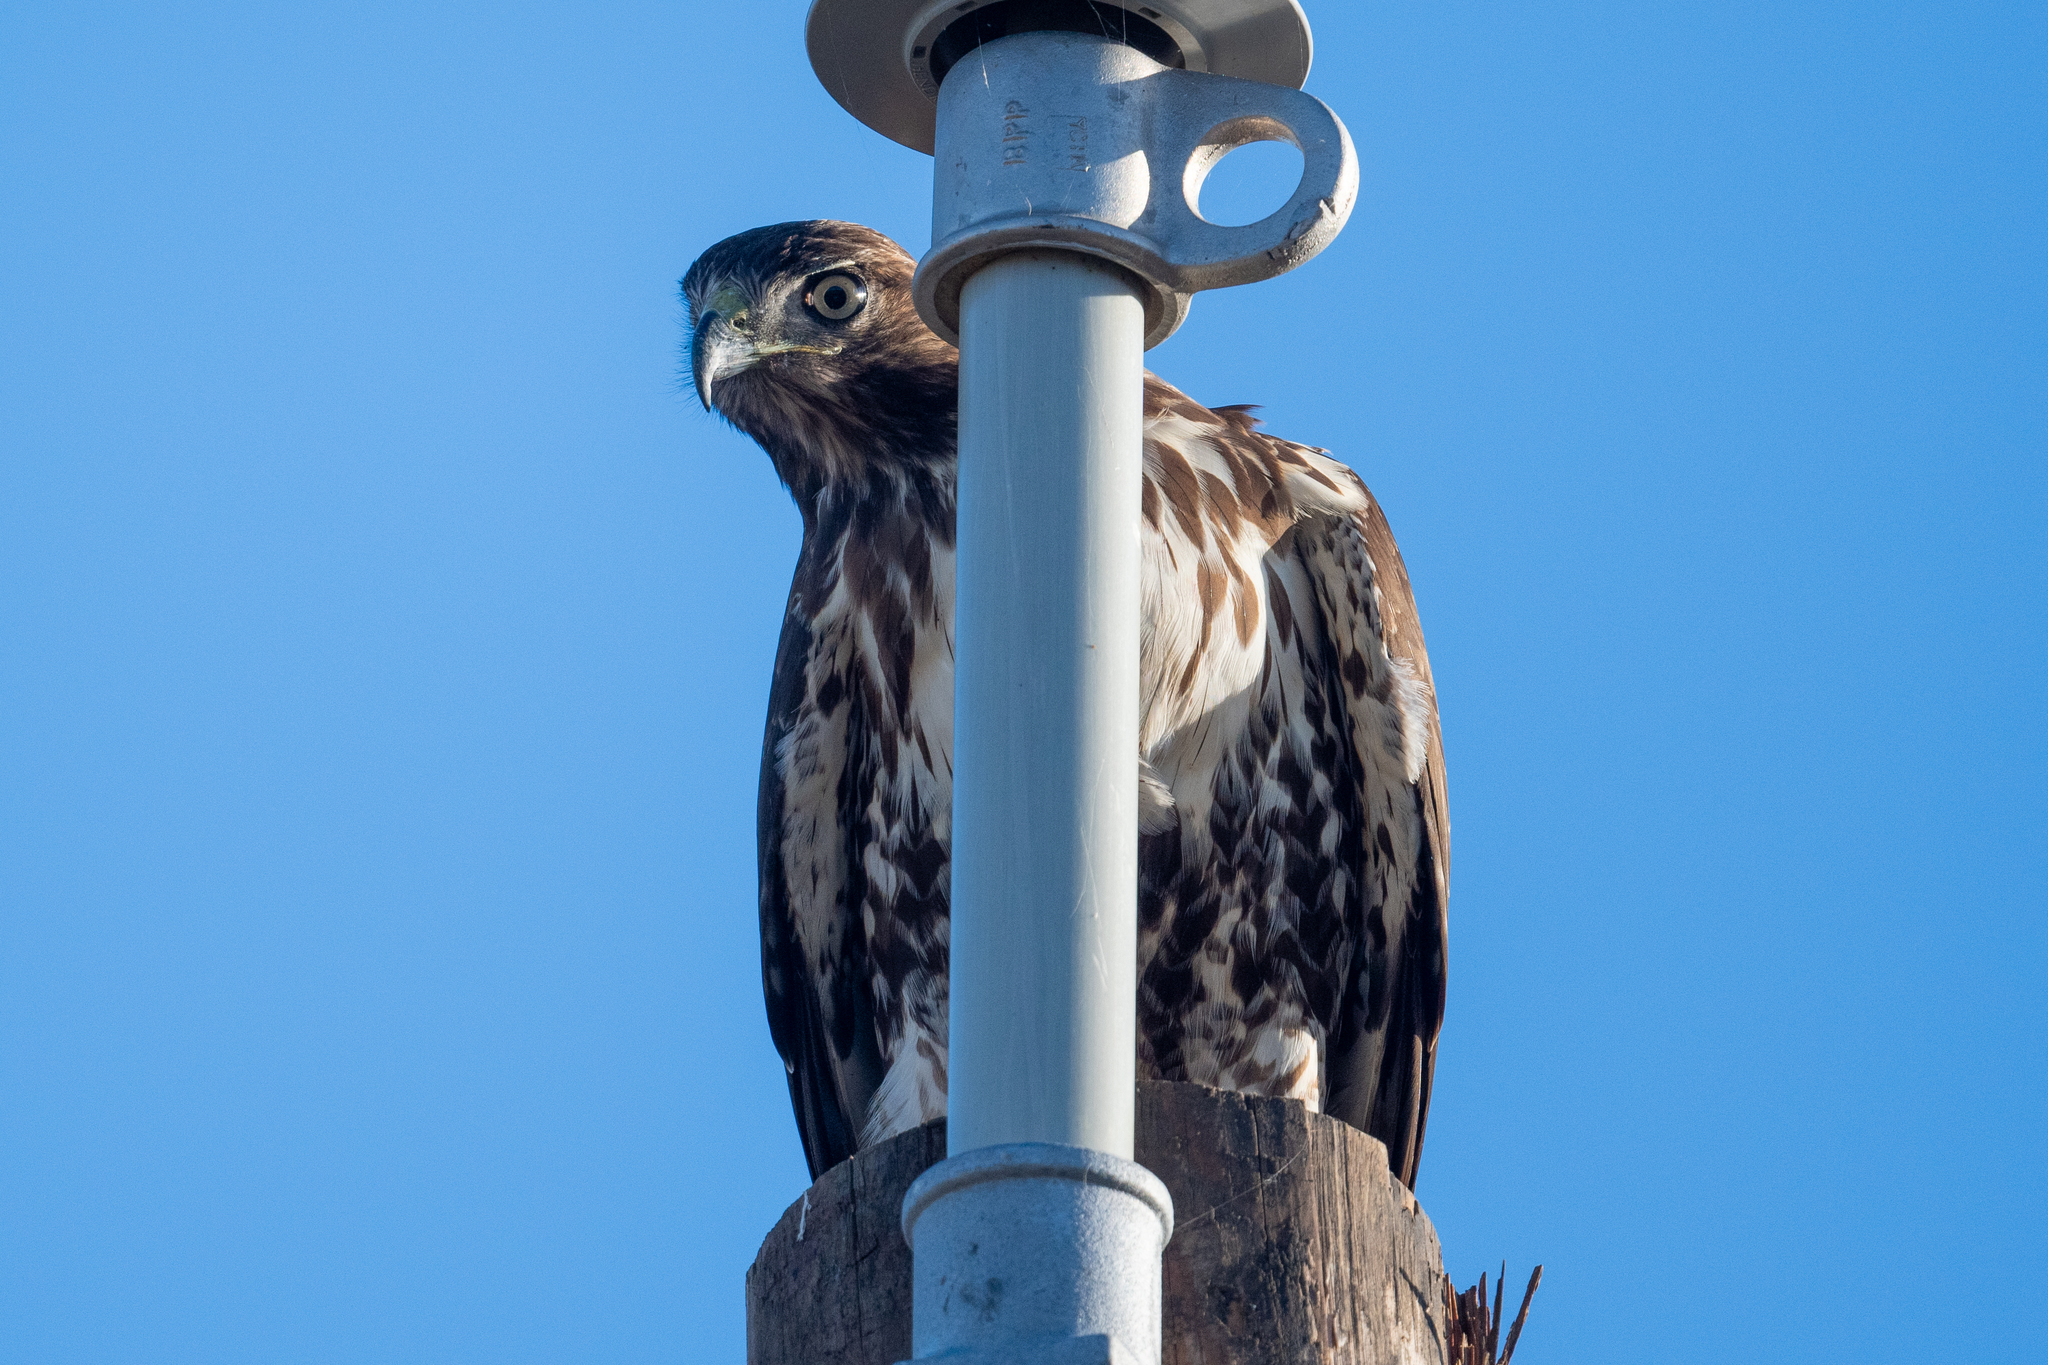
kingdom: Animalia
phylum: Chordata
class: Aves
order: Accipitriformes
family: Accipitridae
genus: Buteo
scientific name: Buteo jamaicensis
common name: Red-tailed hawk
